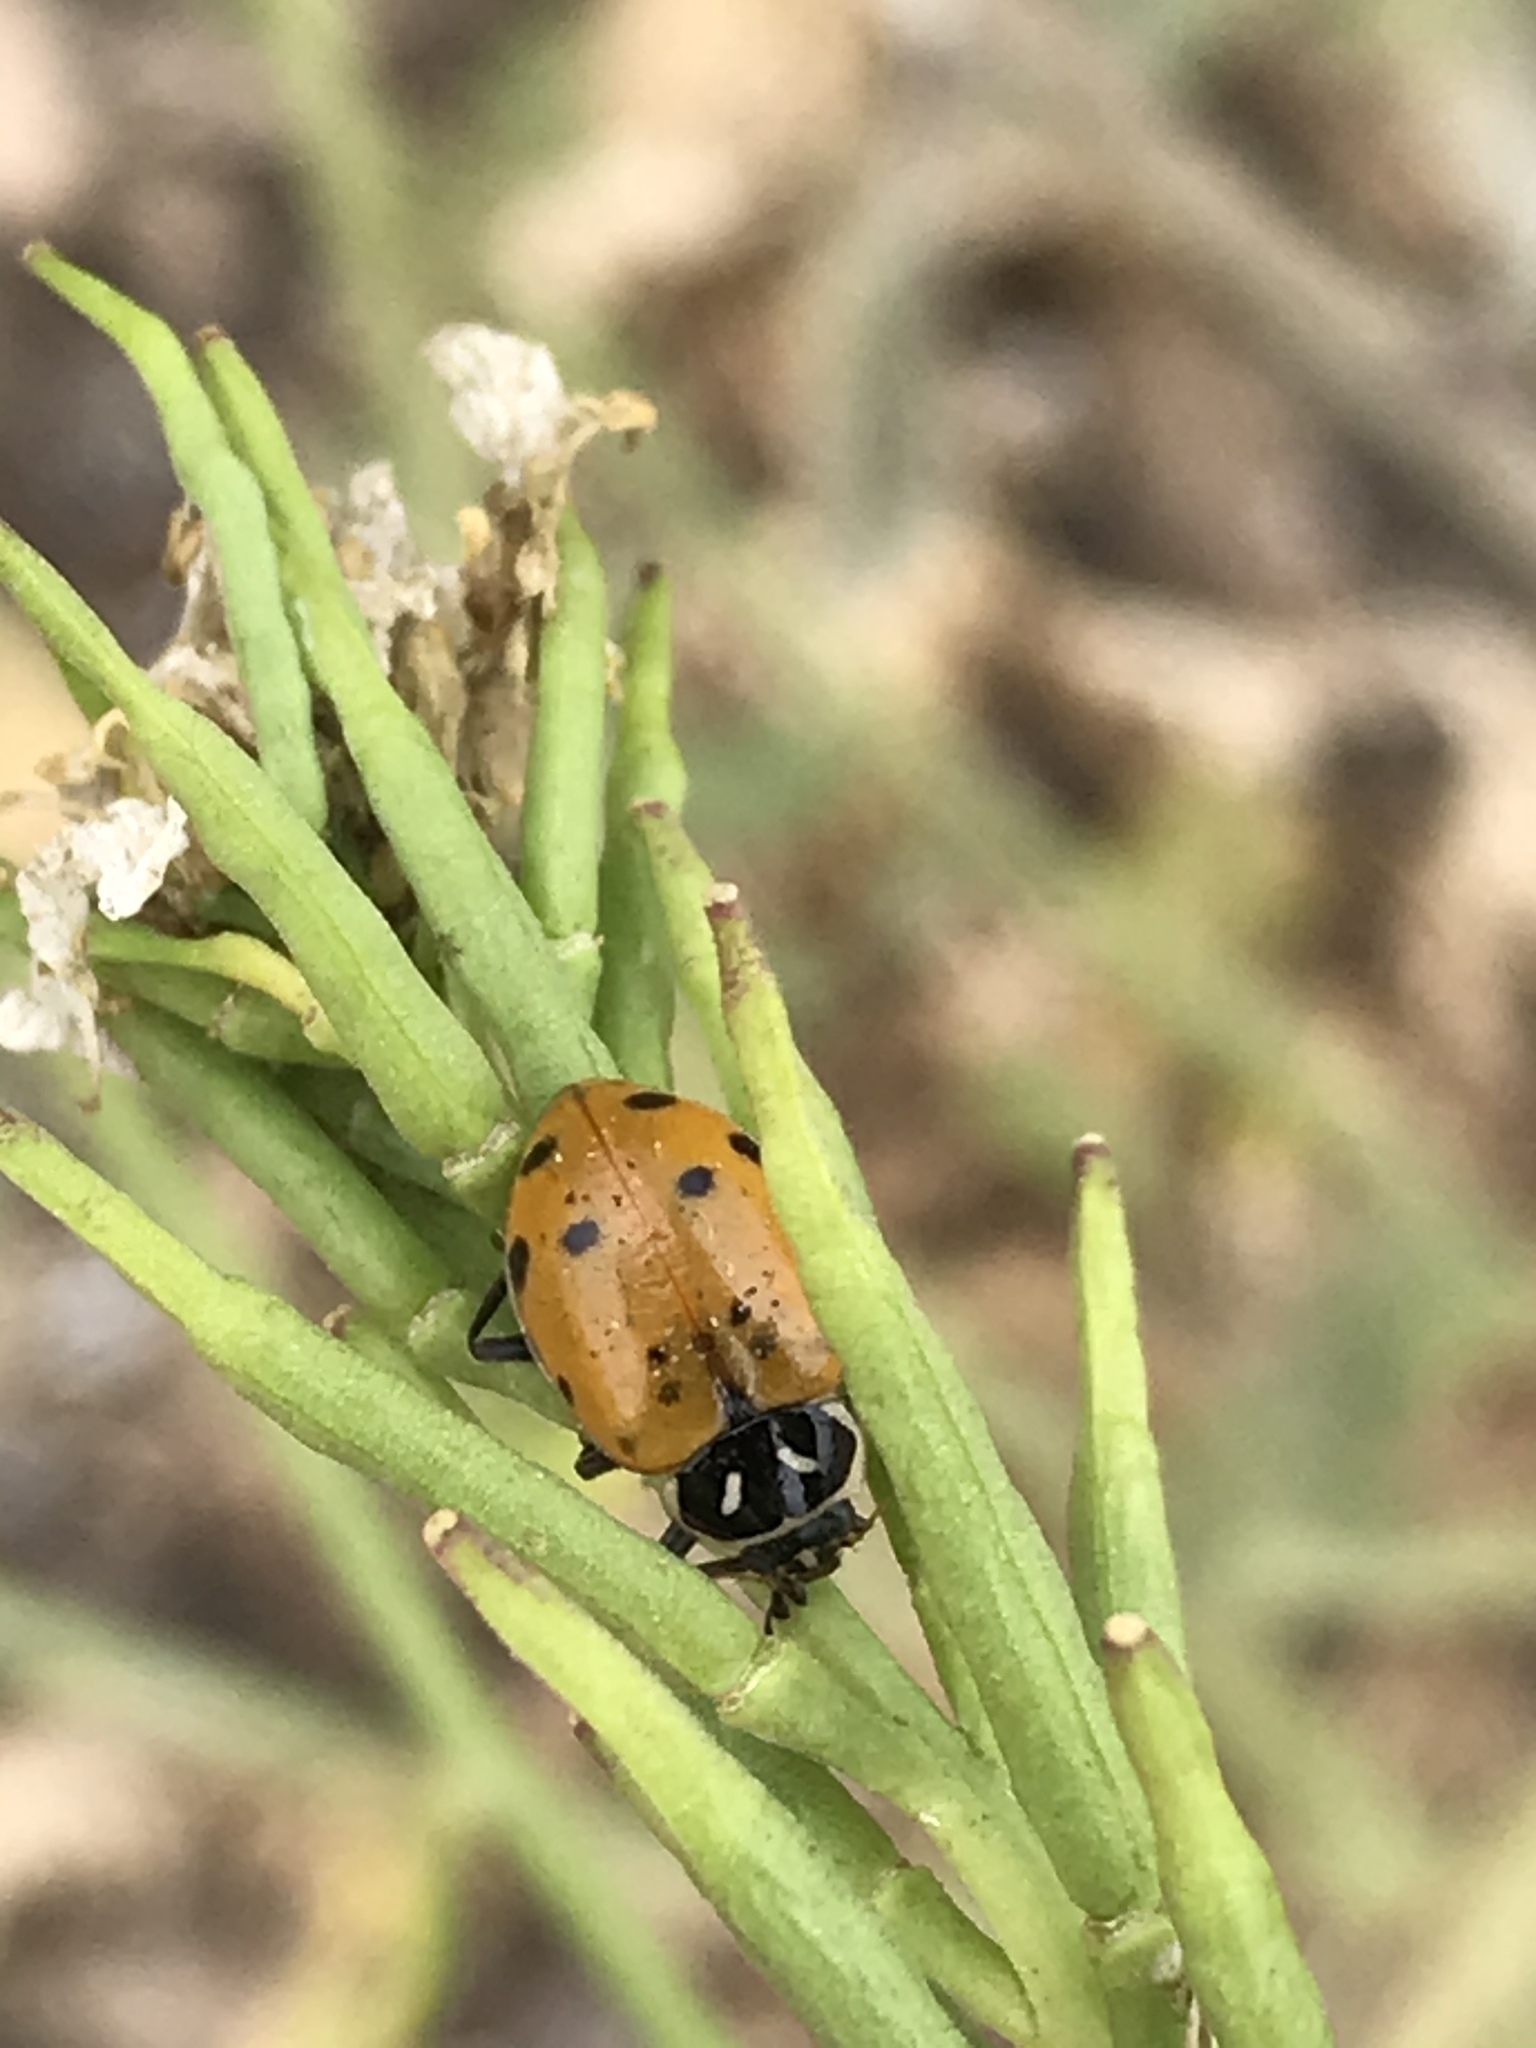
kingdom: Animalia
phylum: Arthropoda
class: Insecta
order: Coleoptera
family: Coccinellidae
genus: Hippodamia
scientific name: Hippodamia convergens
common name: Convergent lady beetle
